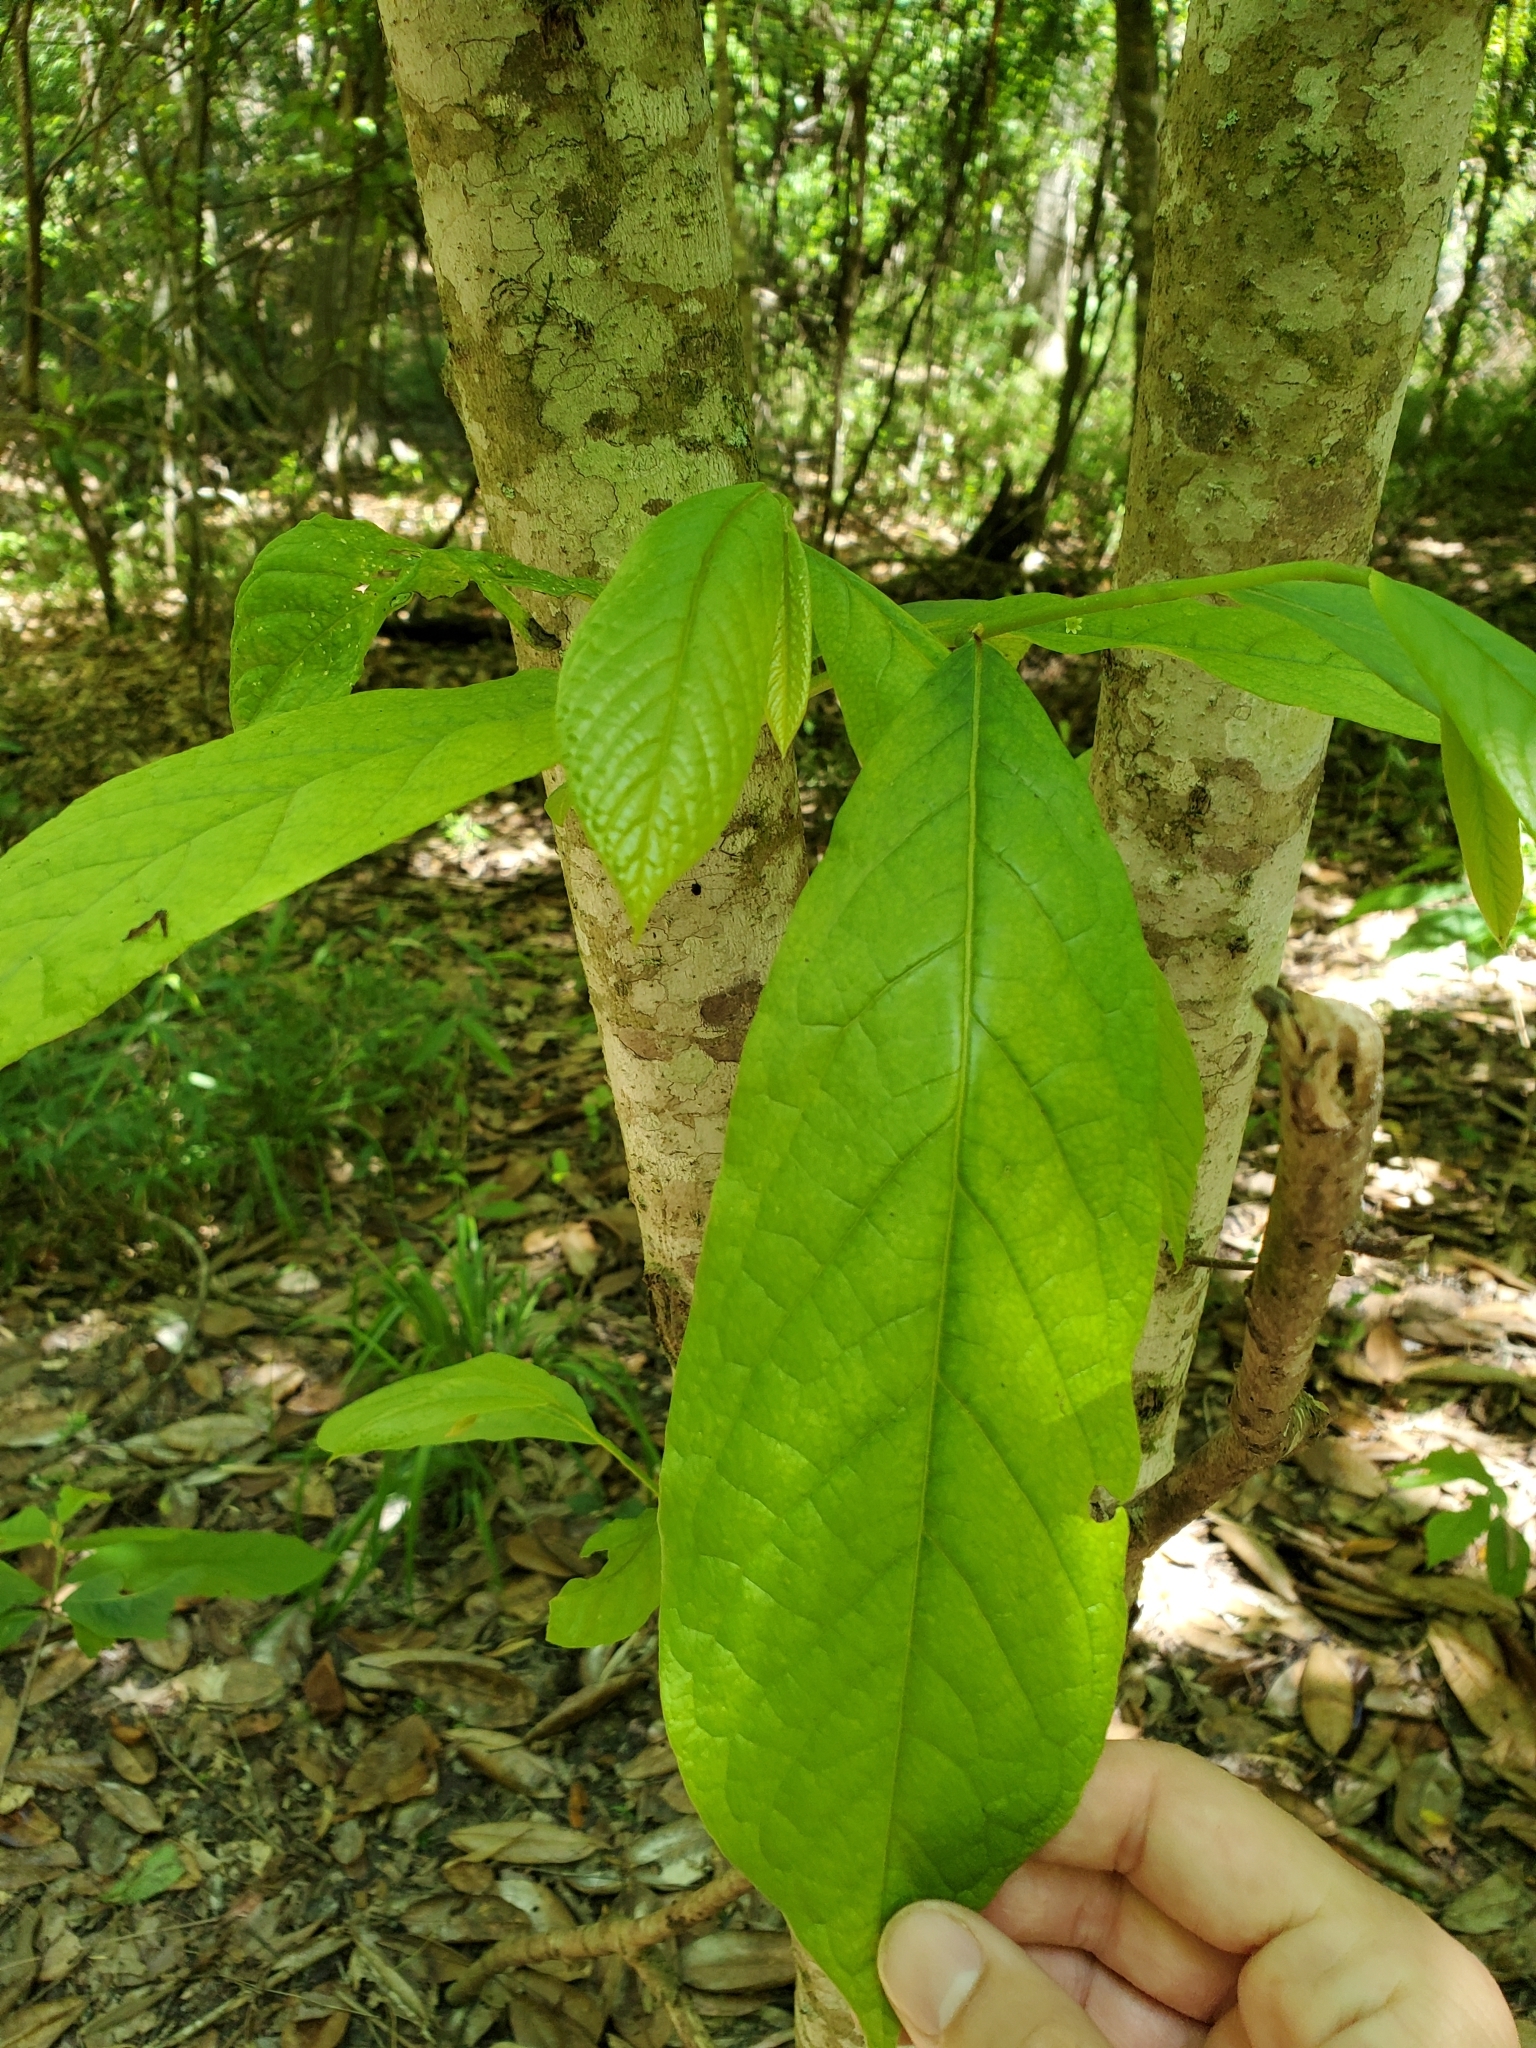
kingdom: Plantae
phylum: Tracheophyta
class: Magnoliopsida
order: Magnoliales
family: Annonaceae
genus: Asimina
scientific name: Asimina triloba
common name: Dog-banana
